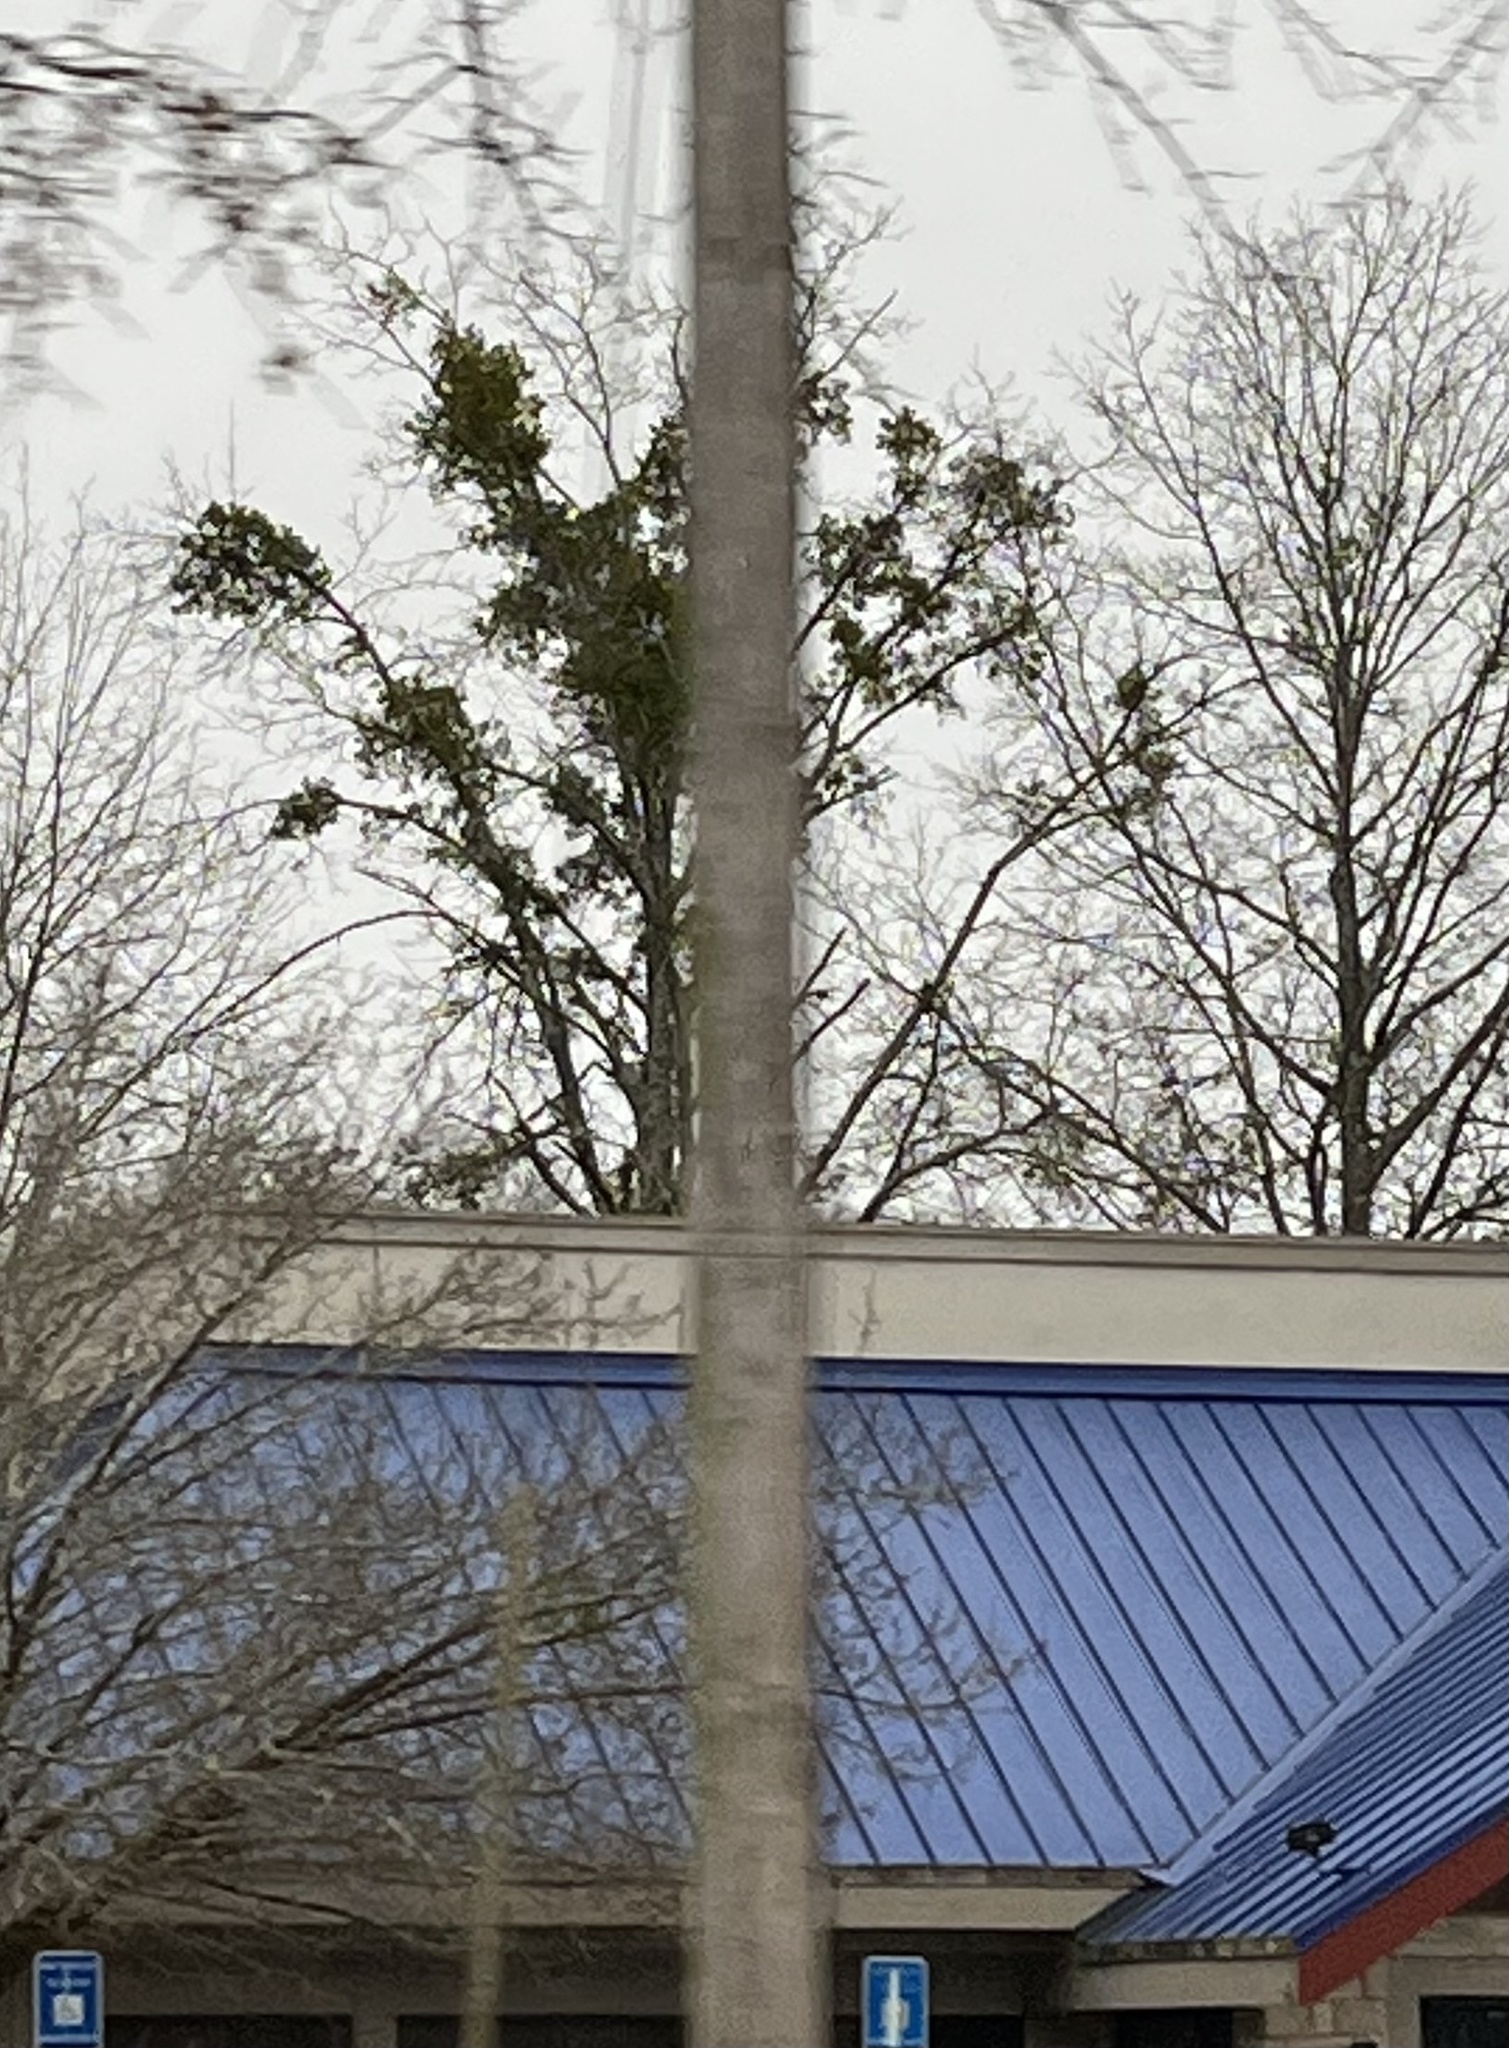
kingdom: Plantae
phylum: Tracheophyta
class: Magnoliopsida
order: Santalales
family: Viscaceae
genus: Phoradendron
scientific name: Phoradendron leucarpum
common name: Pacific mistletoe
